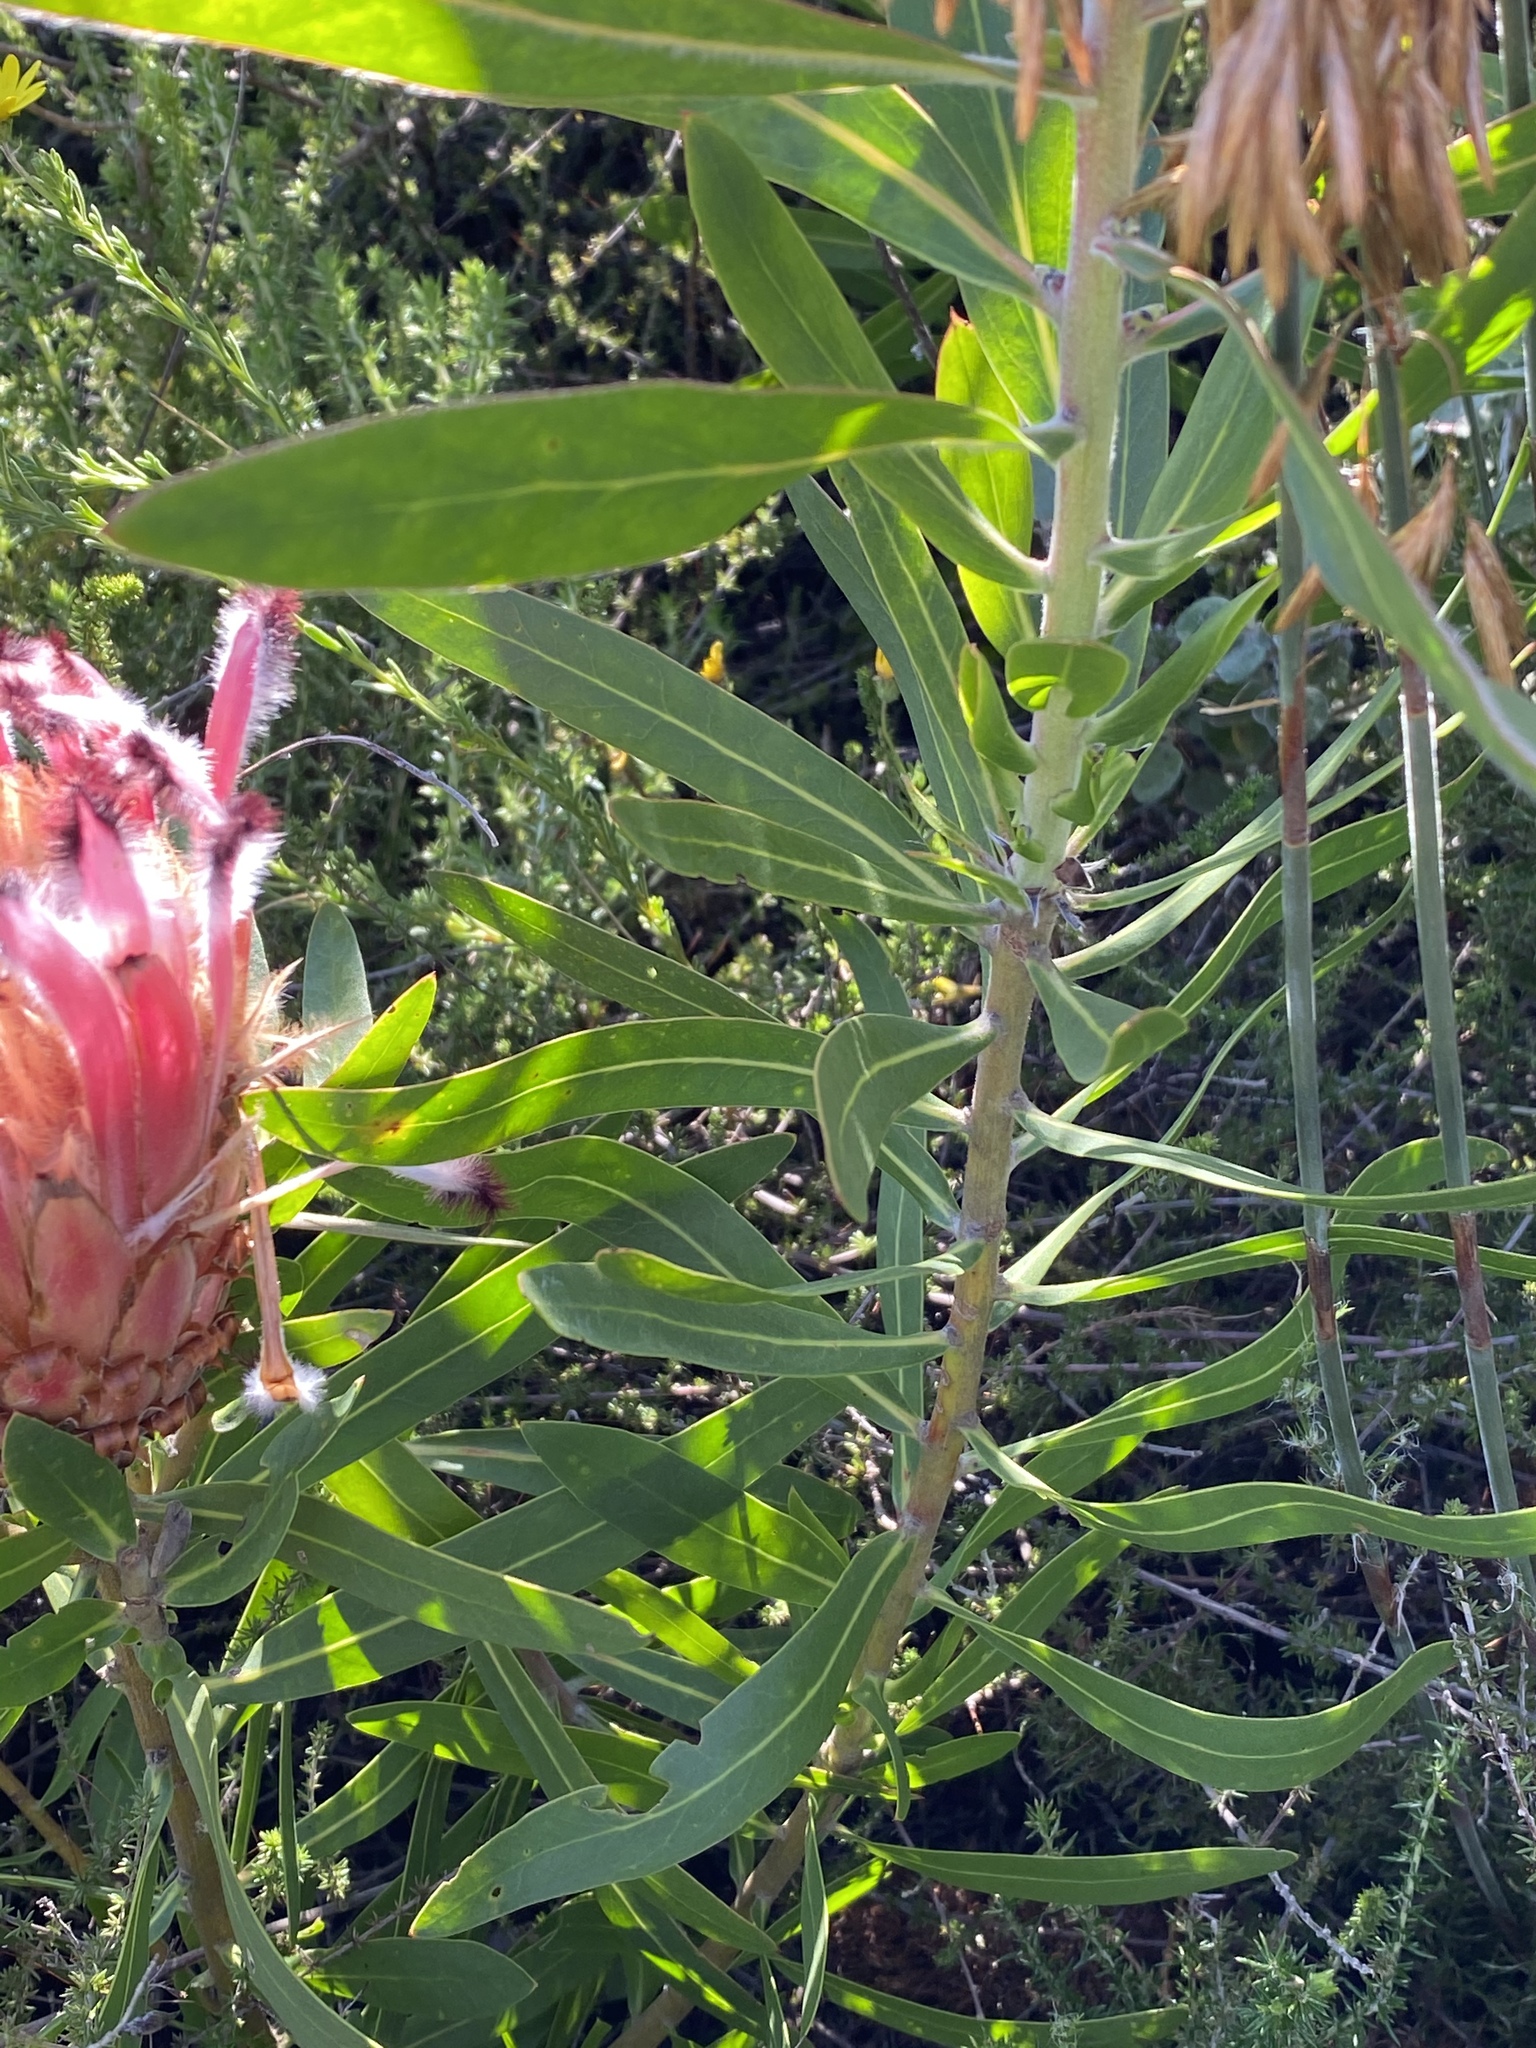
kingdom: Plantae
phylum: Tracheophyta
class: Magnoliopsida
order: Proteales
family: Proteaceae
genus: Protea
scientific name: Protea neriifolia
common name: Blue sugarbush
